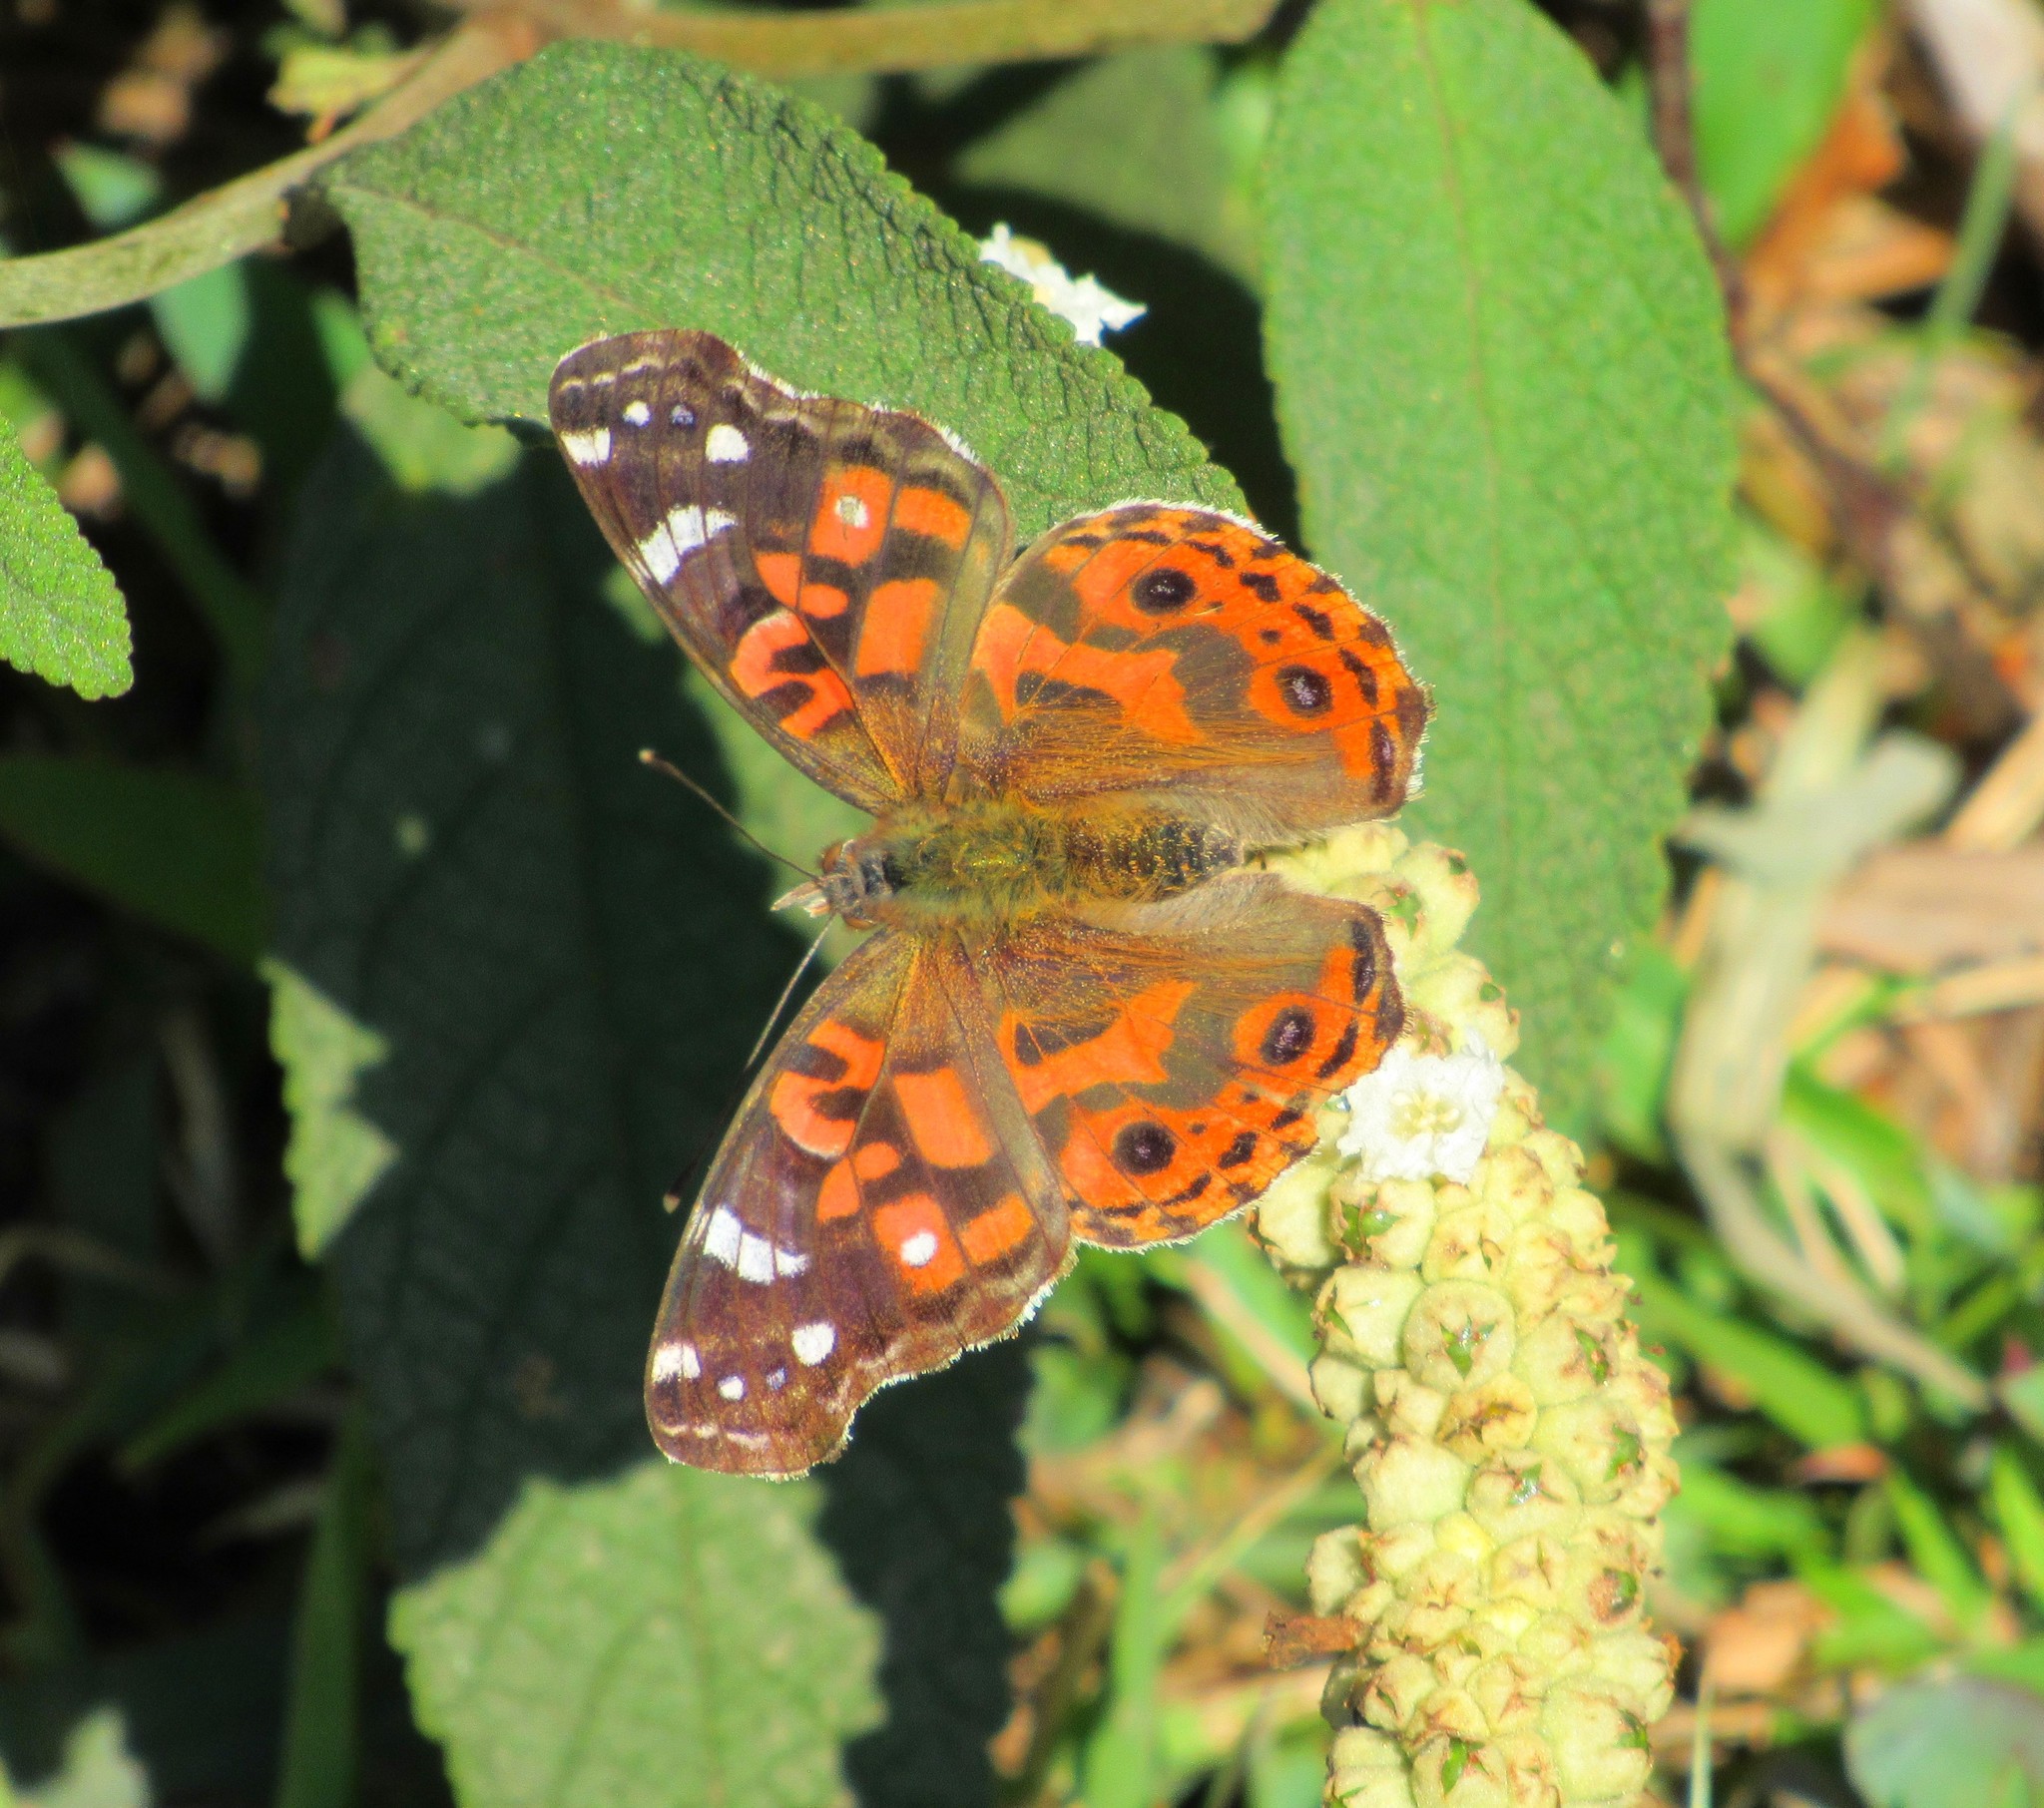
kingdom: Animalia
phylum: Arthropoda
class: Insecta
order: Lepidoptera
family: Nymphalidae
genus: Vanessa
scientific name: Vanessa braziliensis
